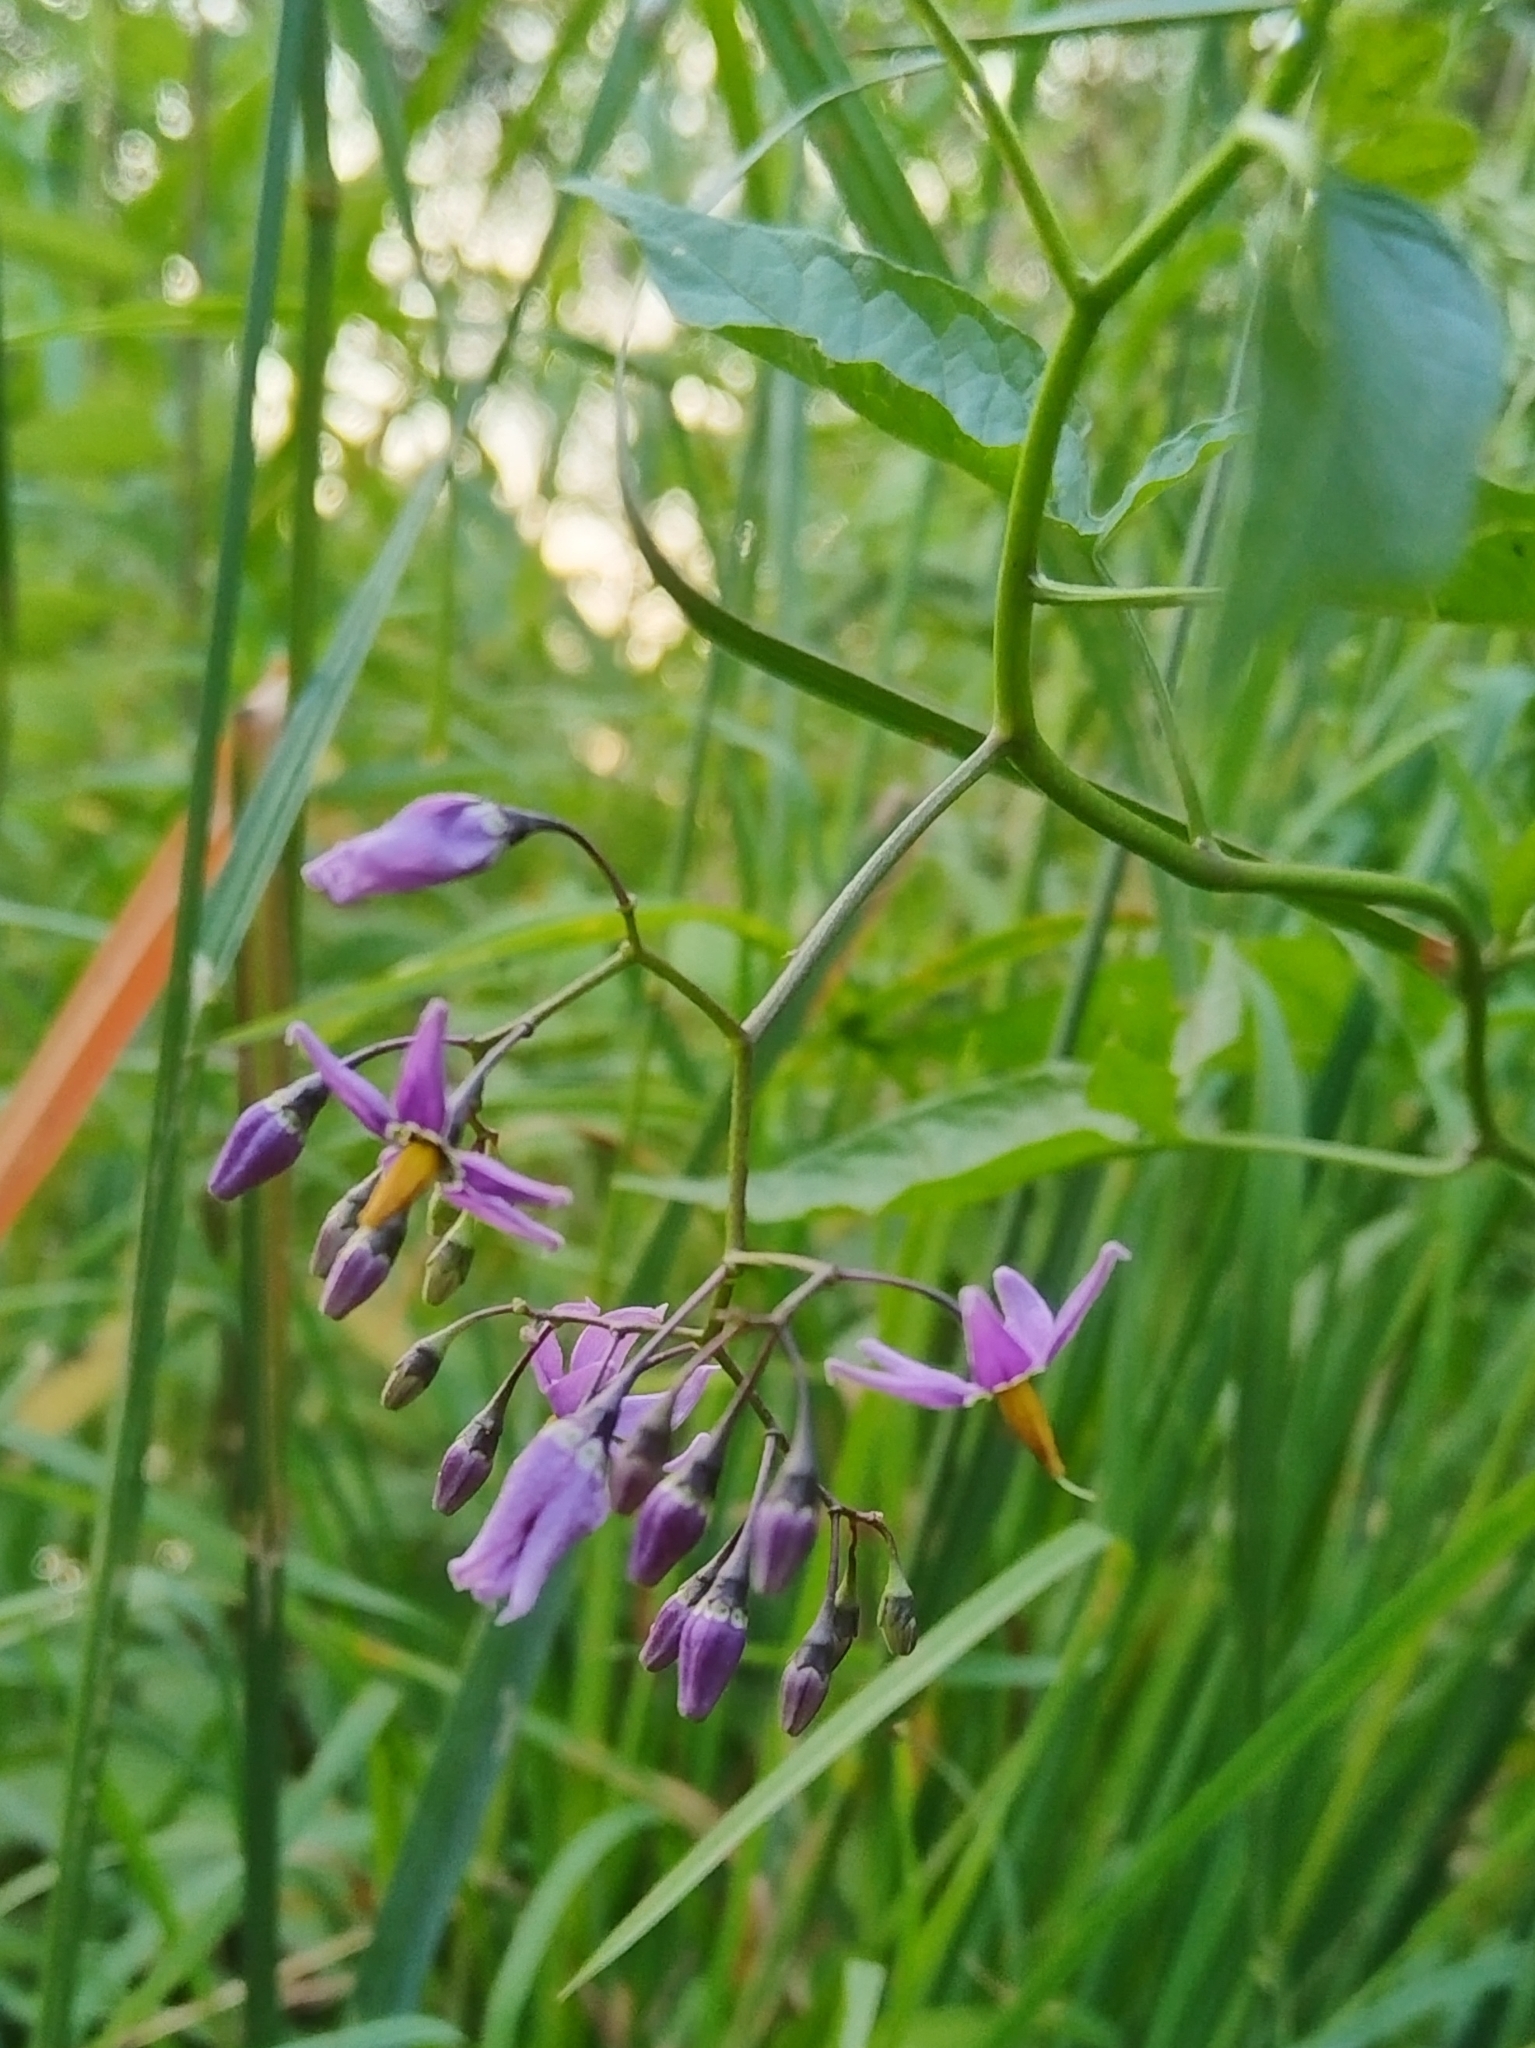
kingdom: Plantae
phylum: Tracheophyta
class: Magnoliopsida
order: Solanales
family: Solanaceae
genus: Solanum
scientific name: Solanum dulcamara
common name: Climbing nightshade
